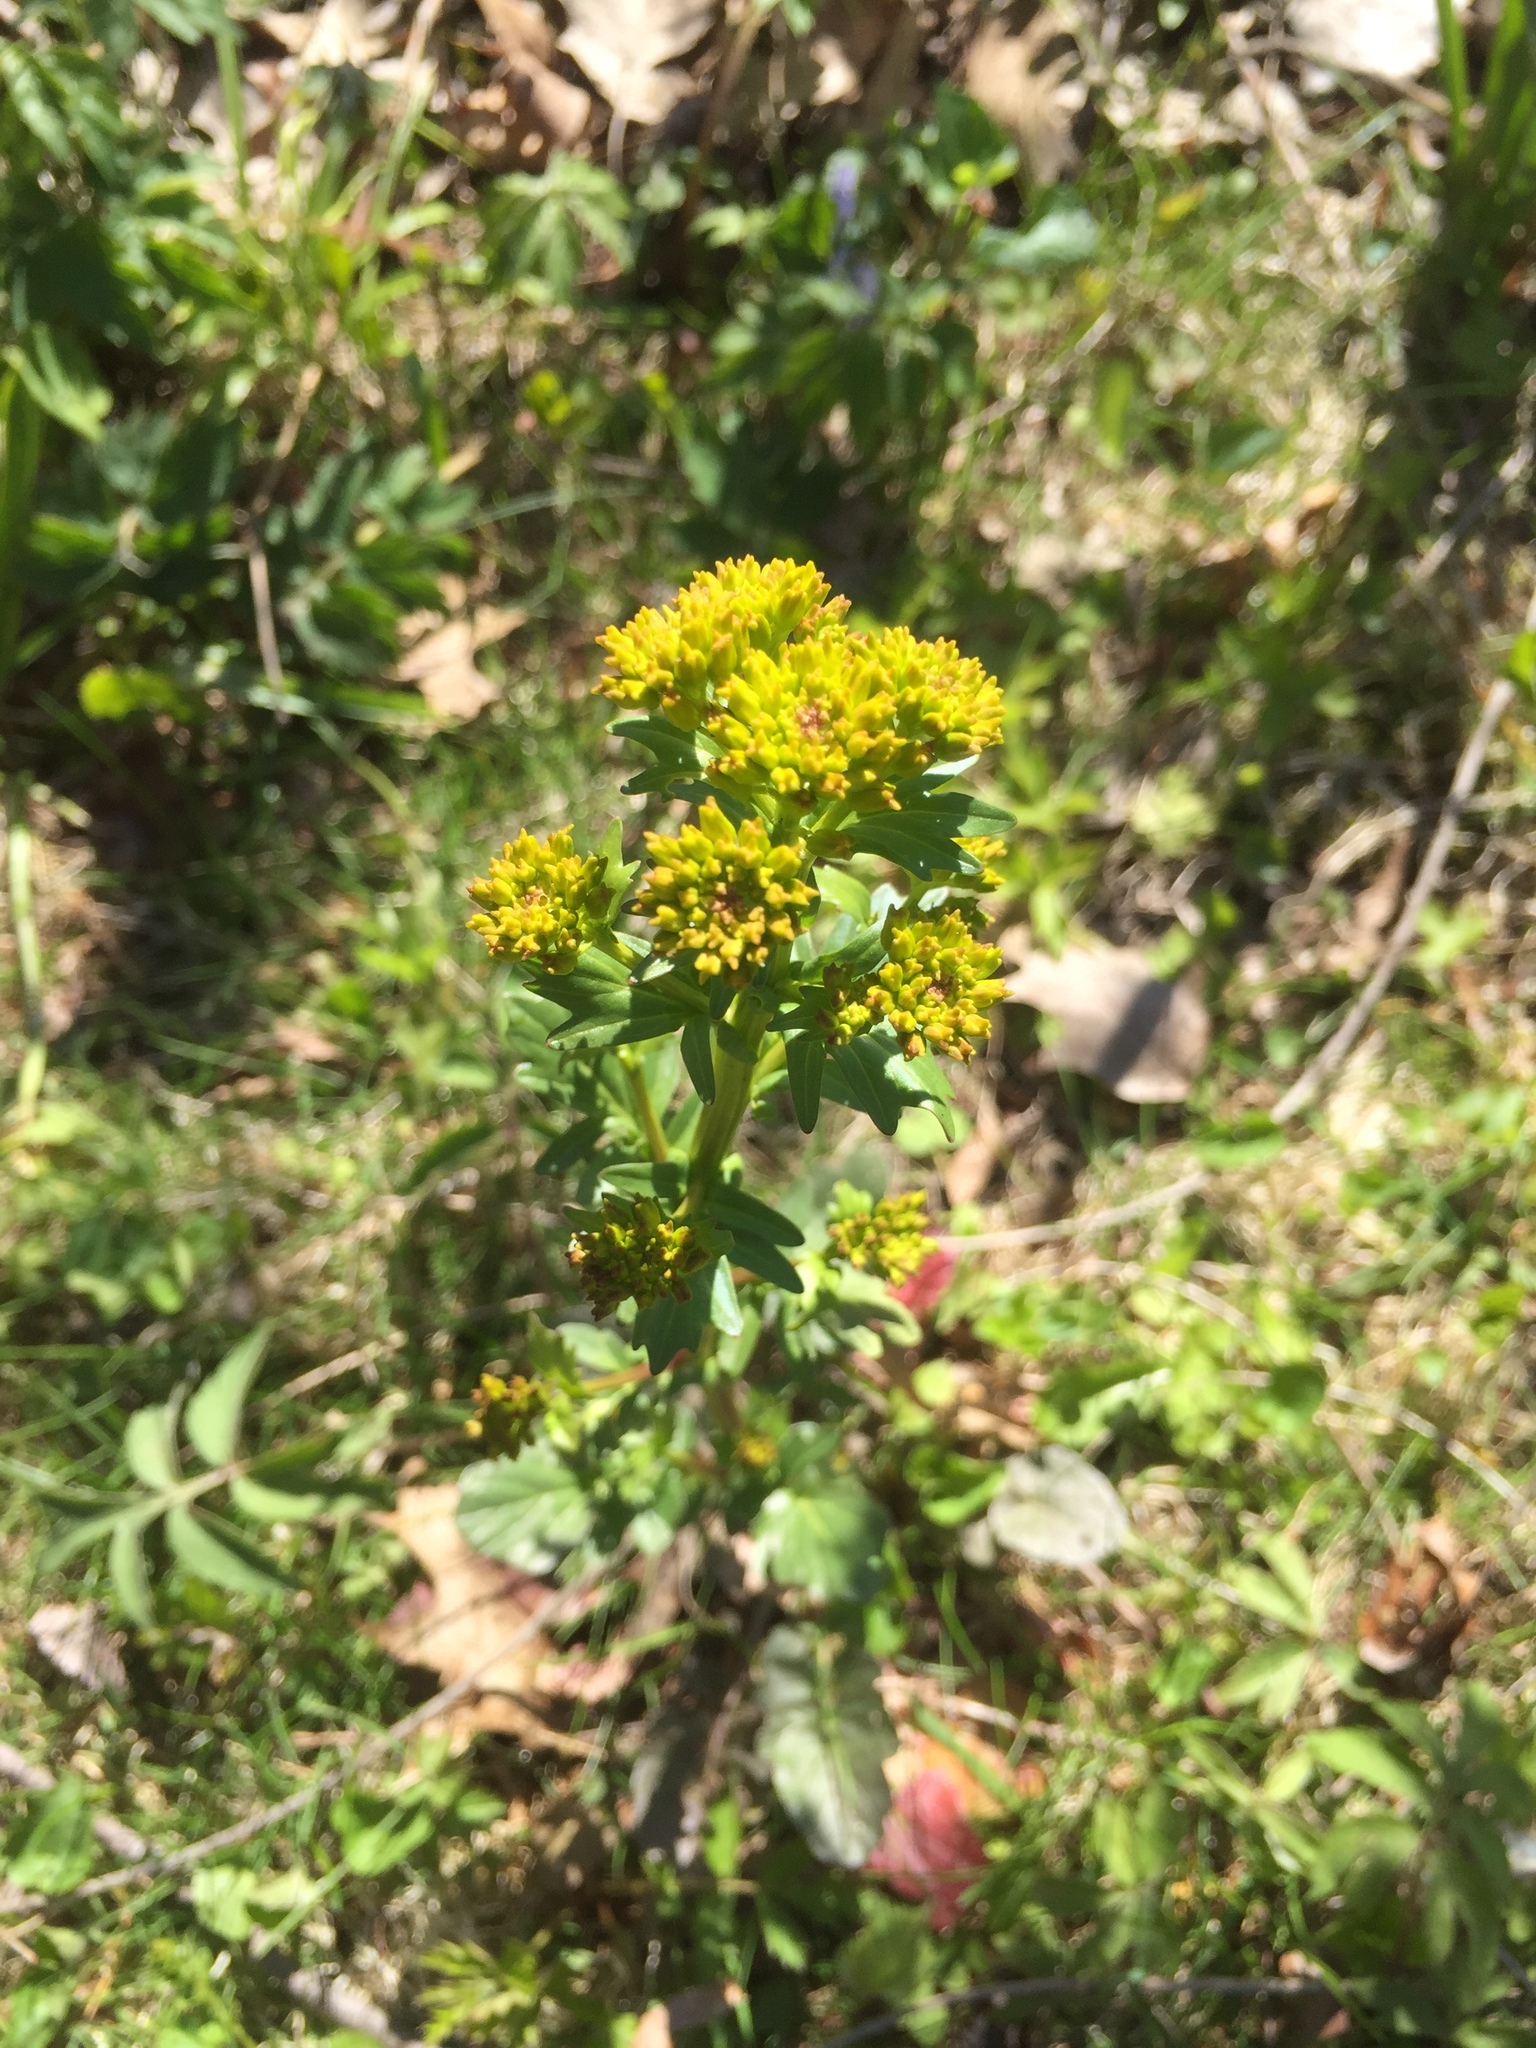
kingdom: Plantae
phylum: Tracheophyta
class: Magnoliopsida
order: Brassicales
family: Brassicaceae
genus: Barbarea
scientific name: Barbarea vulgaris
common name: Cressy-greens
